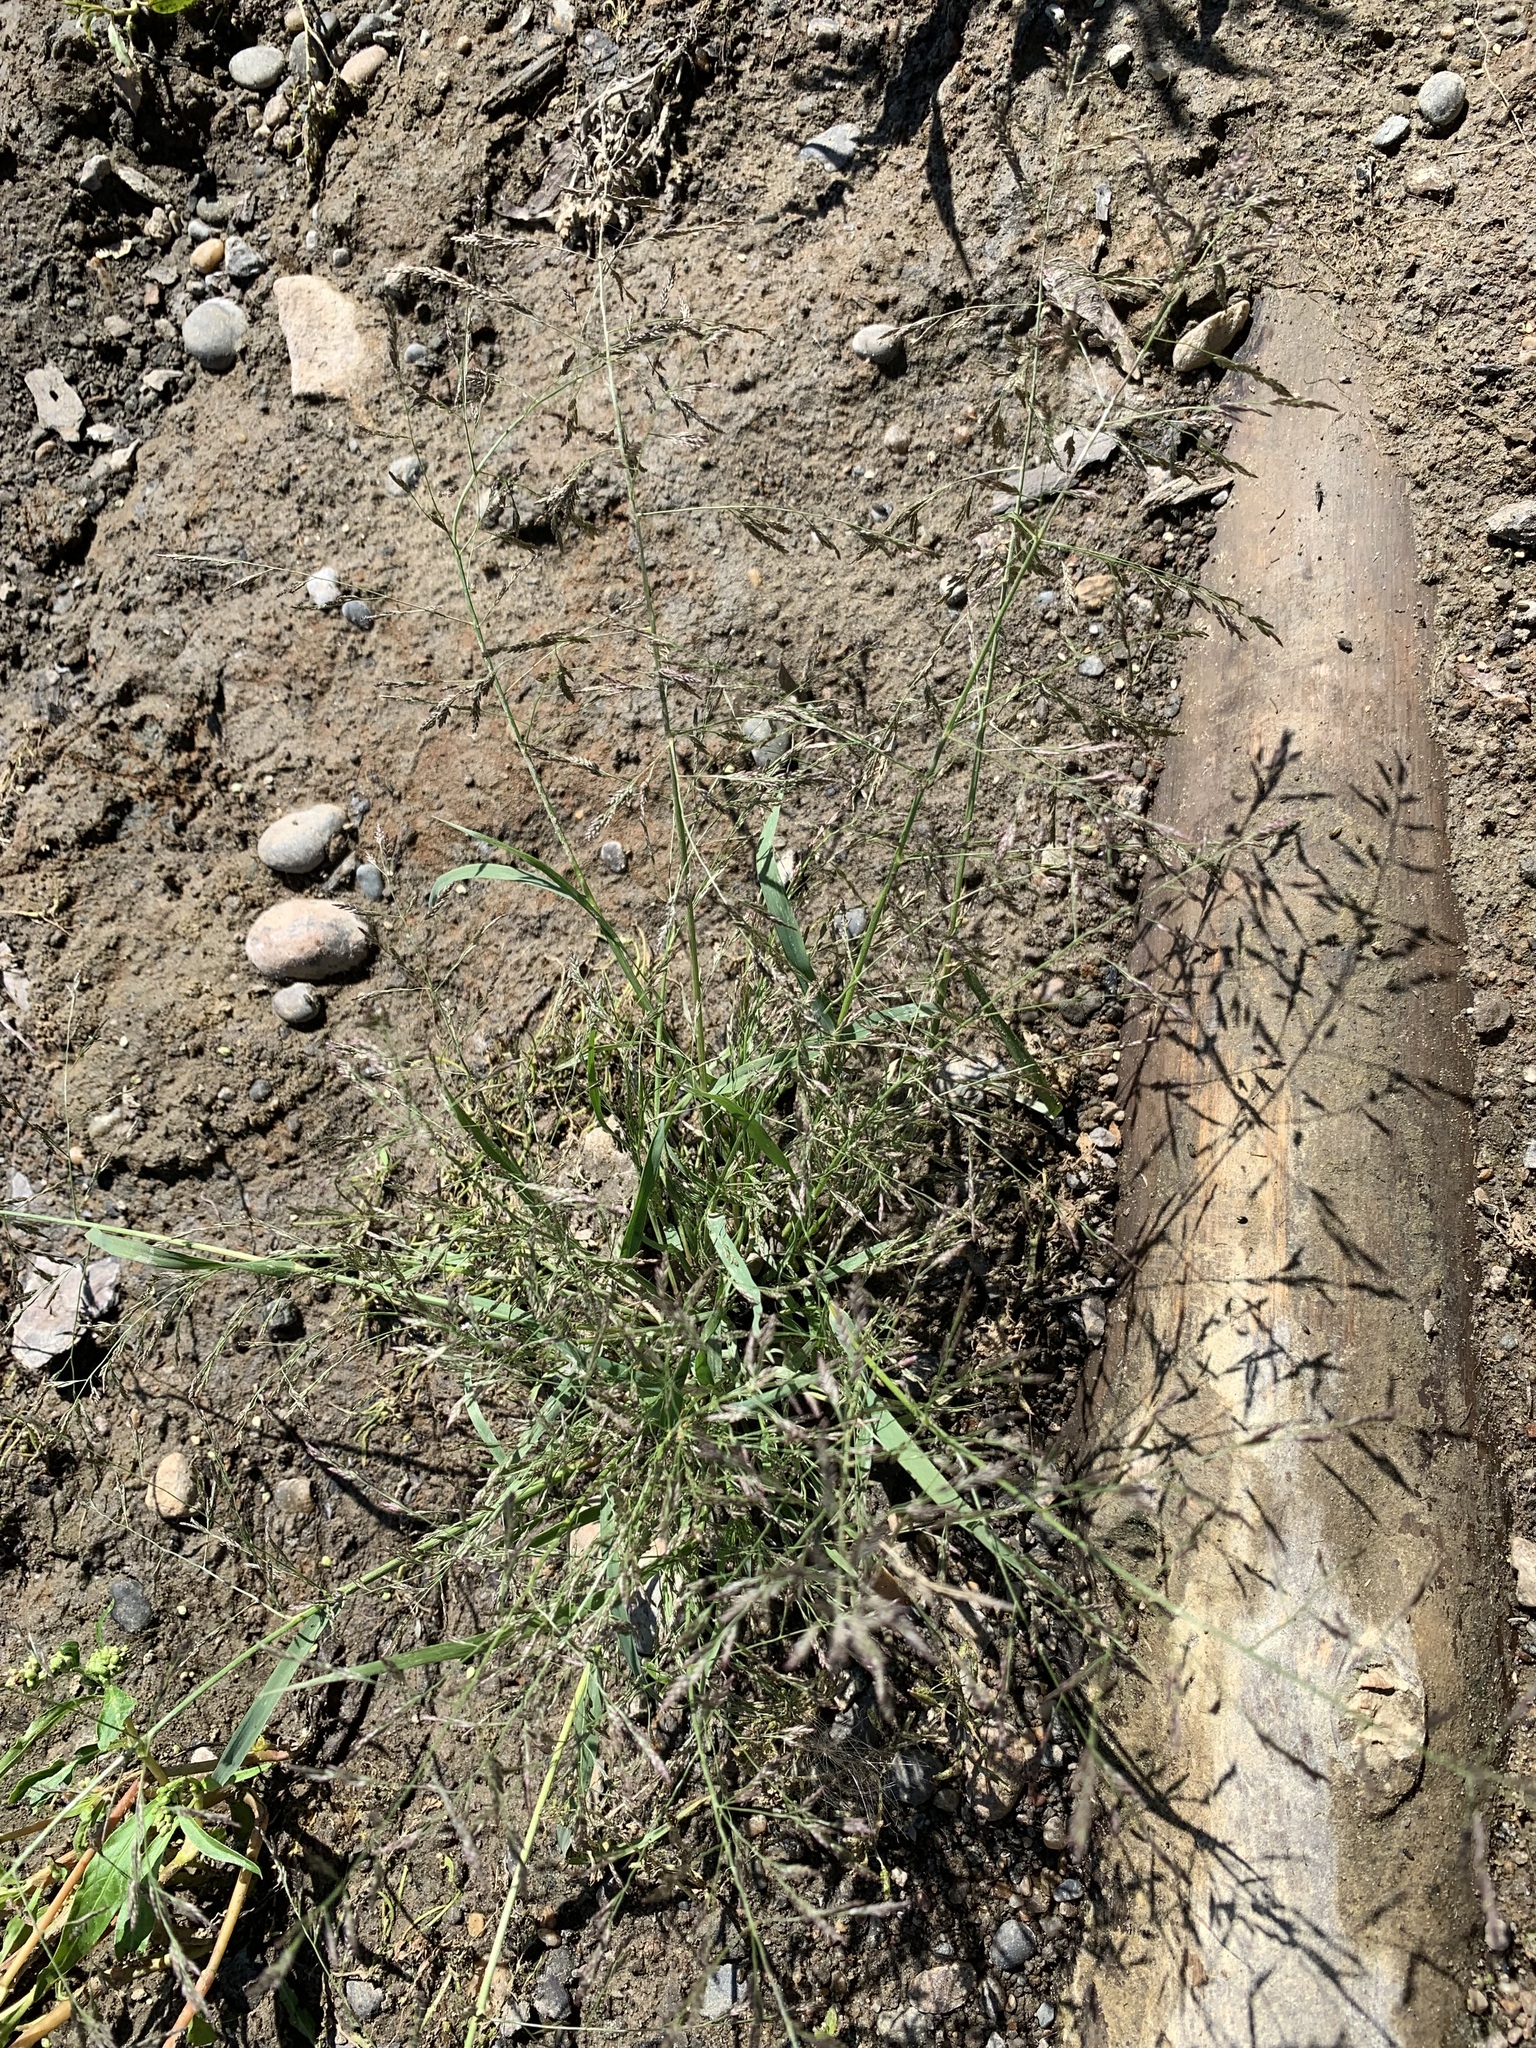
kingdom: Plantae
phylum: Tracheophyta
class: Liliopsida
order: Poales
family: Poaceae
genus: Eragrostis
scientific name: Eragrostis amurensis
